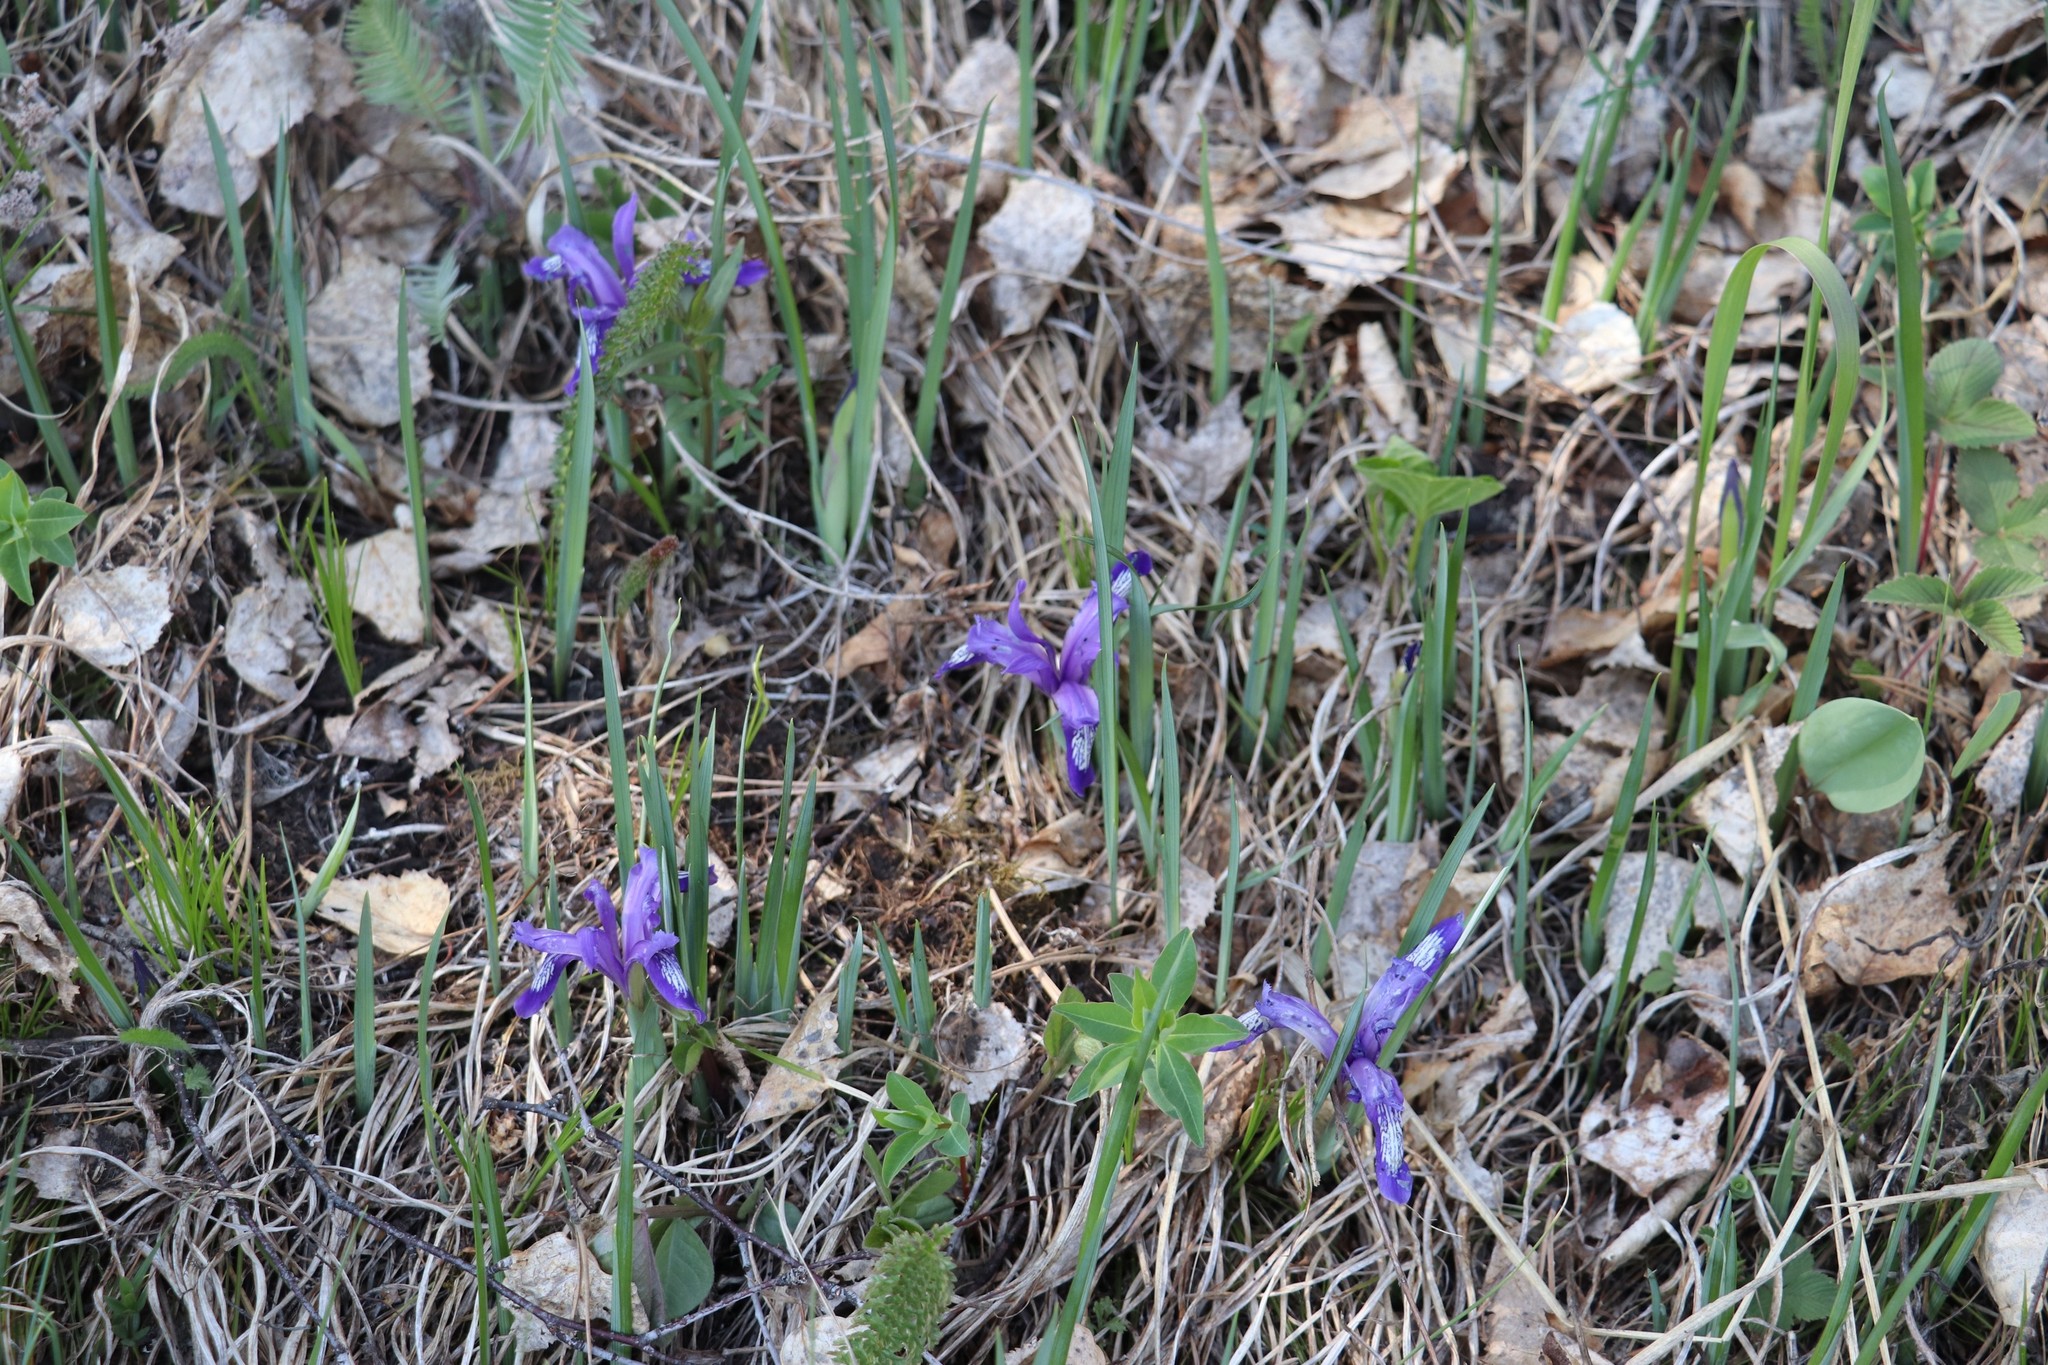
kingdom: Plantae
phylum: Tracheophyta
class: Liliopsida
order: Asparagales
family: Iridaceae
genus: Iris
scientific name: Iris ruthenica
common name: Purple-bract iris
